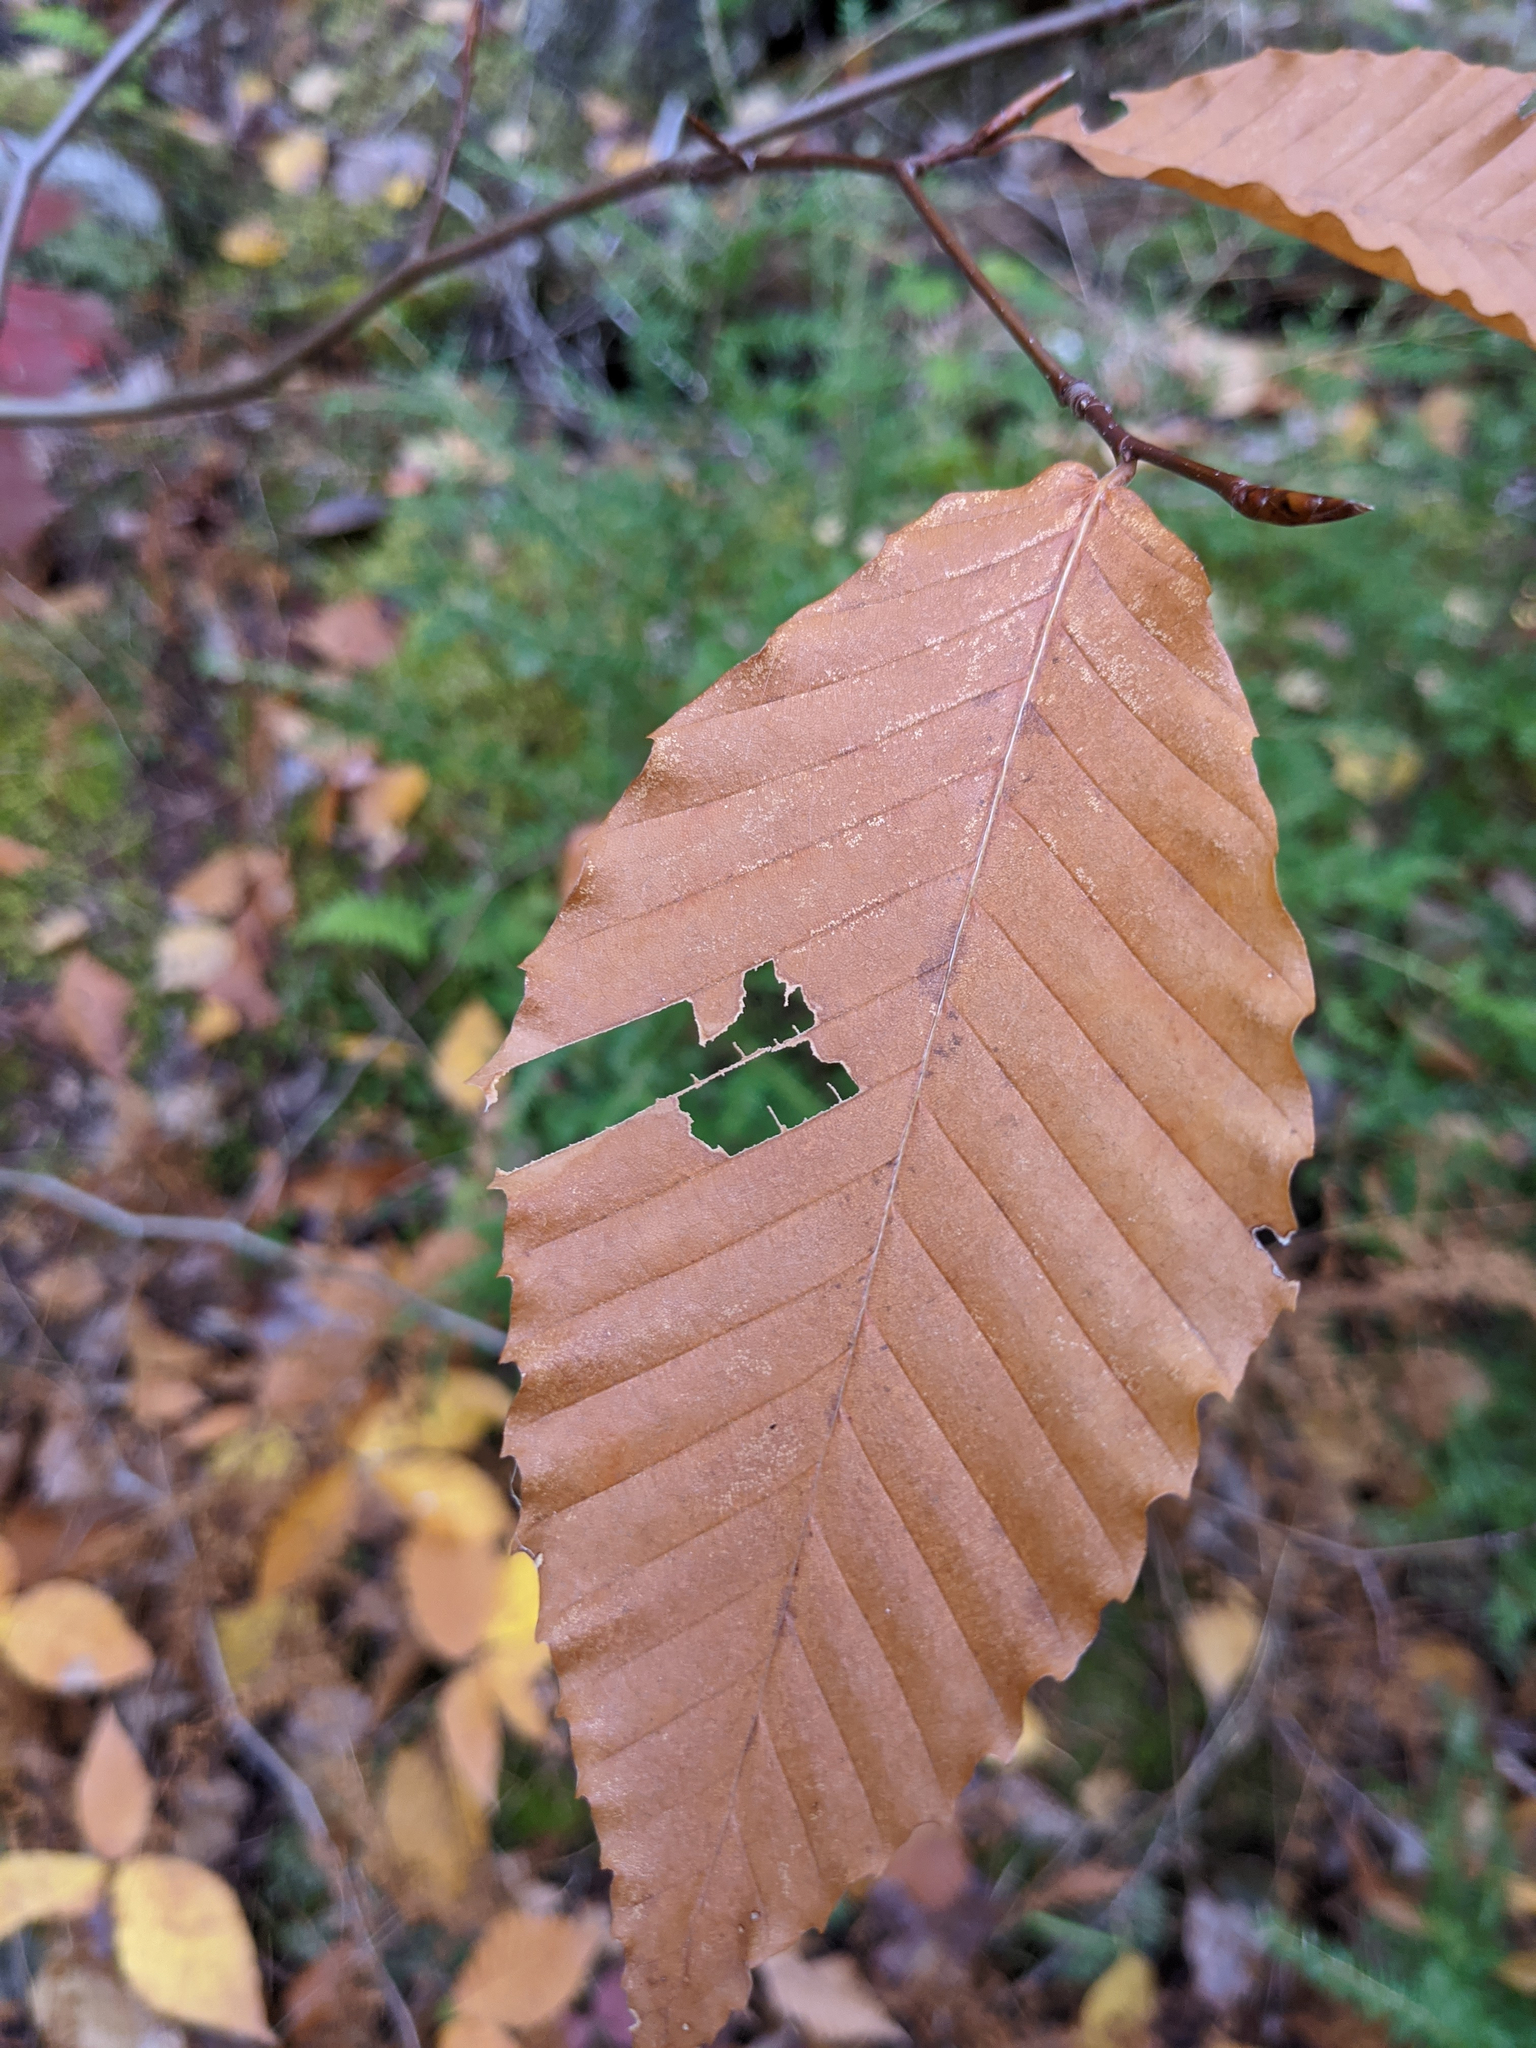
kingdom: Plantae
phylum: Tracheophyta
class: Magnoliopsida
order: Fagales
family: Fagaceae
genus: Fagus
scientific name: Fagus grandifolia
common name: American beech
